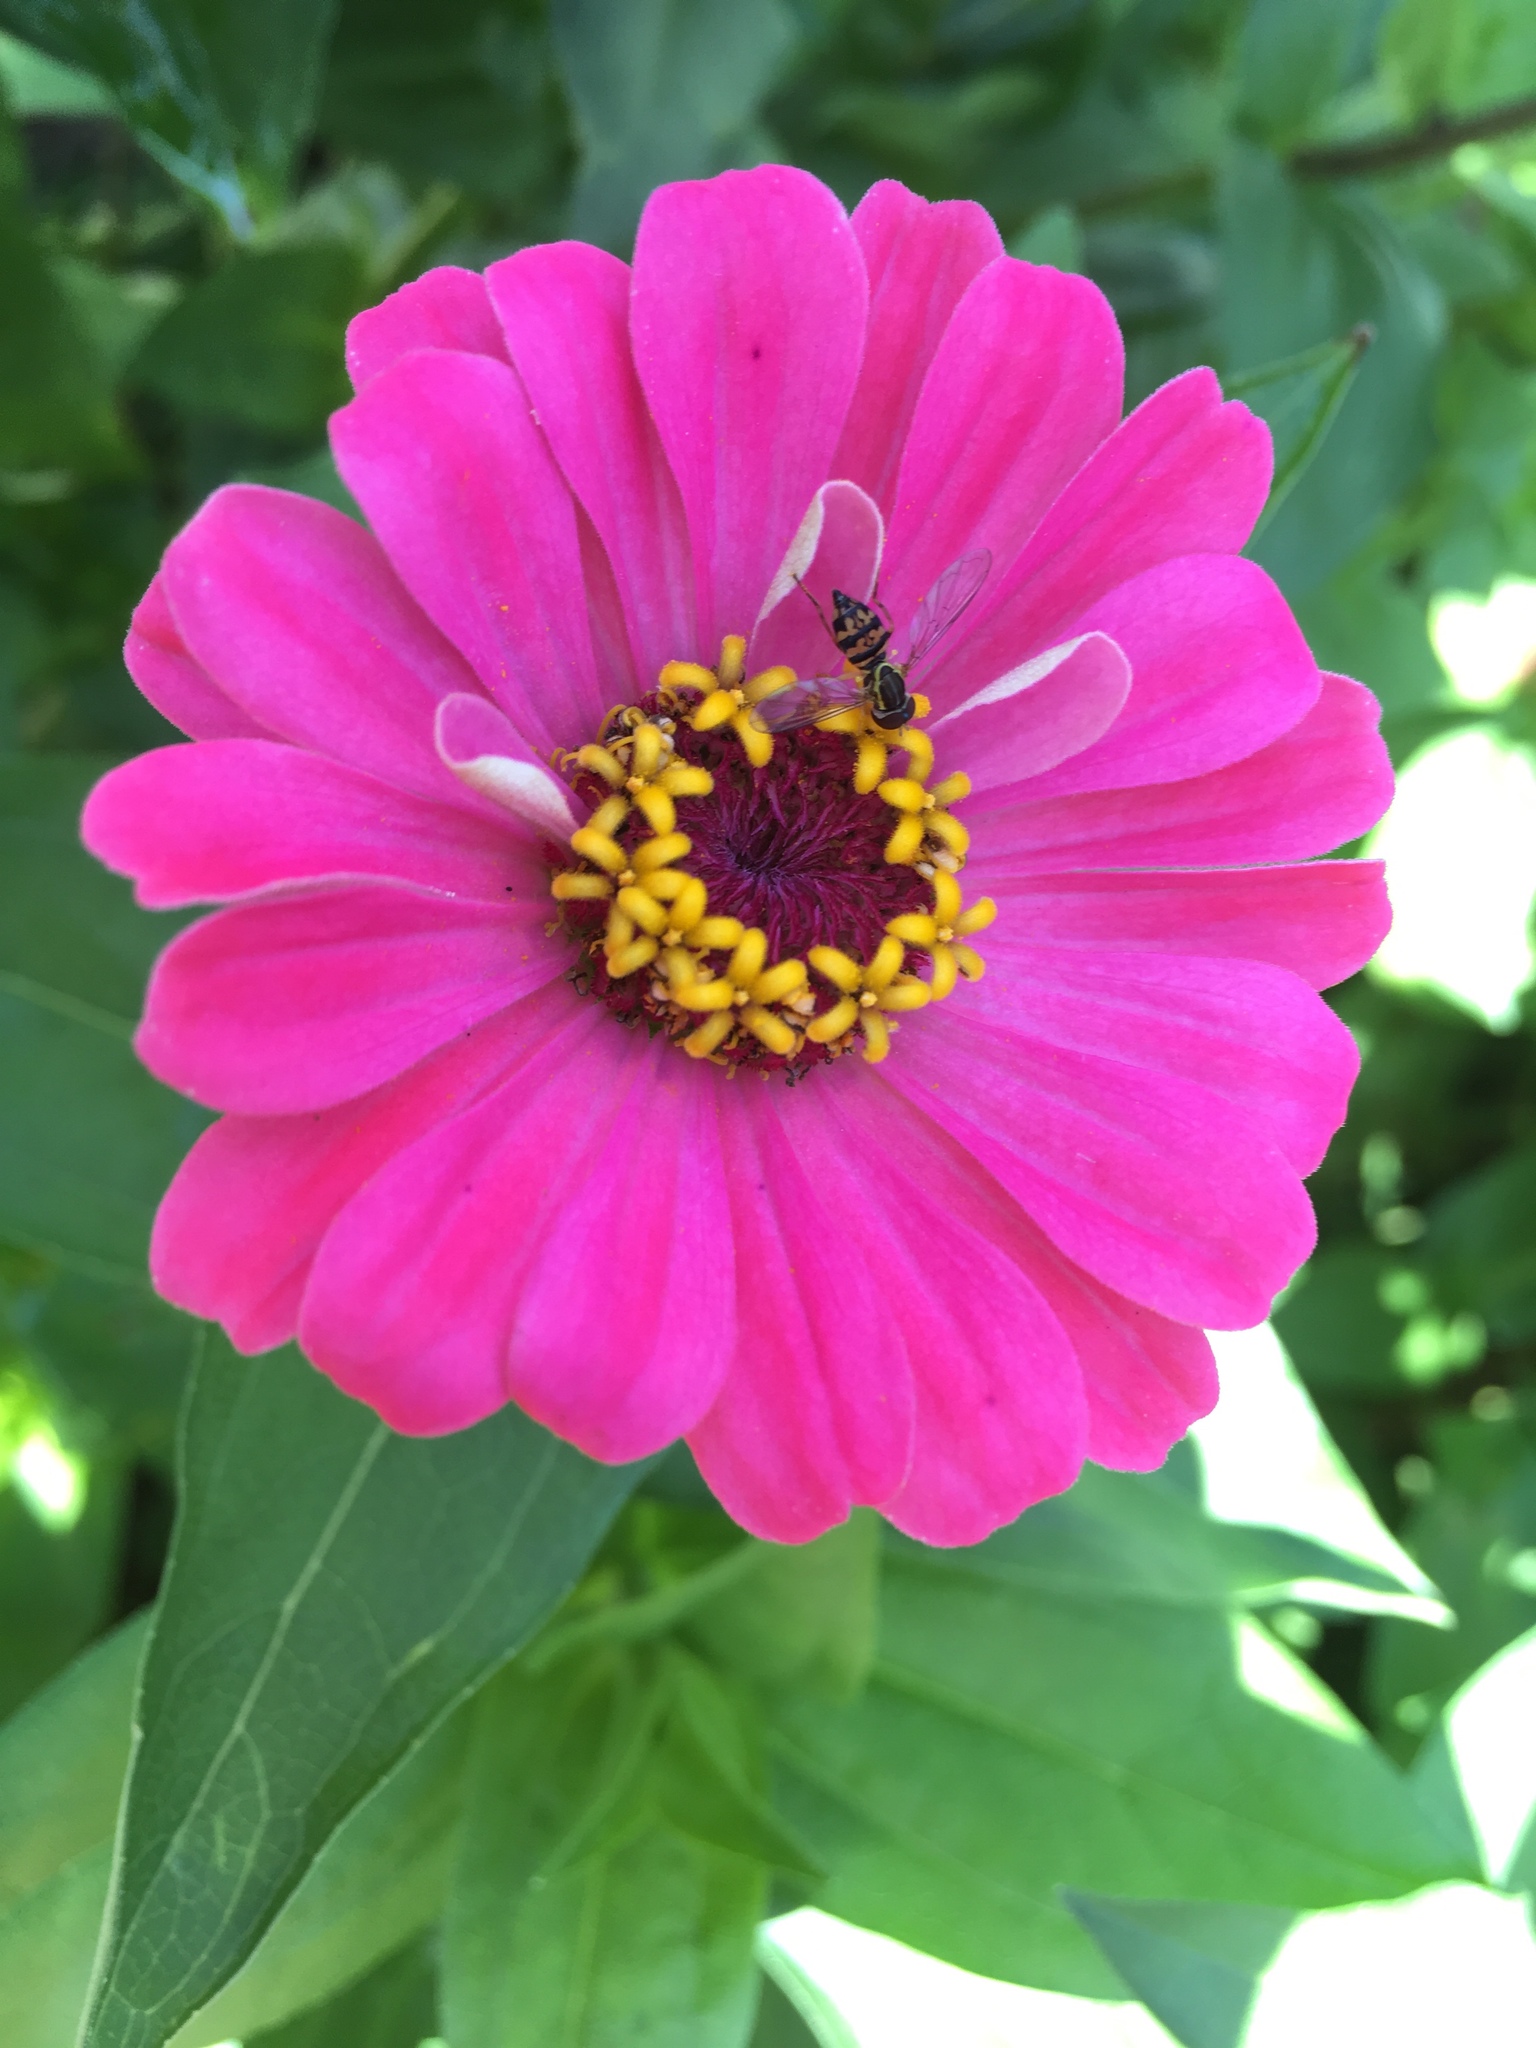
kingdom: Animalia
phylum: Arthropoda
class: Insecta
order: Diptera
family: Syrphidae
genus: Toxomerus
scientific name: Toxomerus geminatus
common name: Eastern calligrapher
